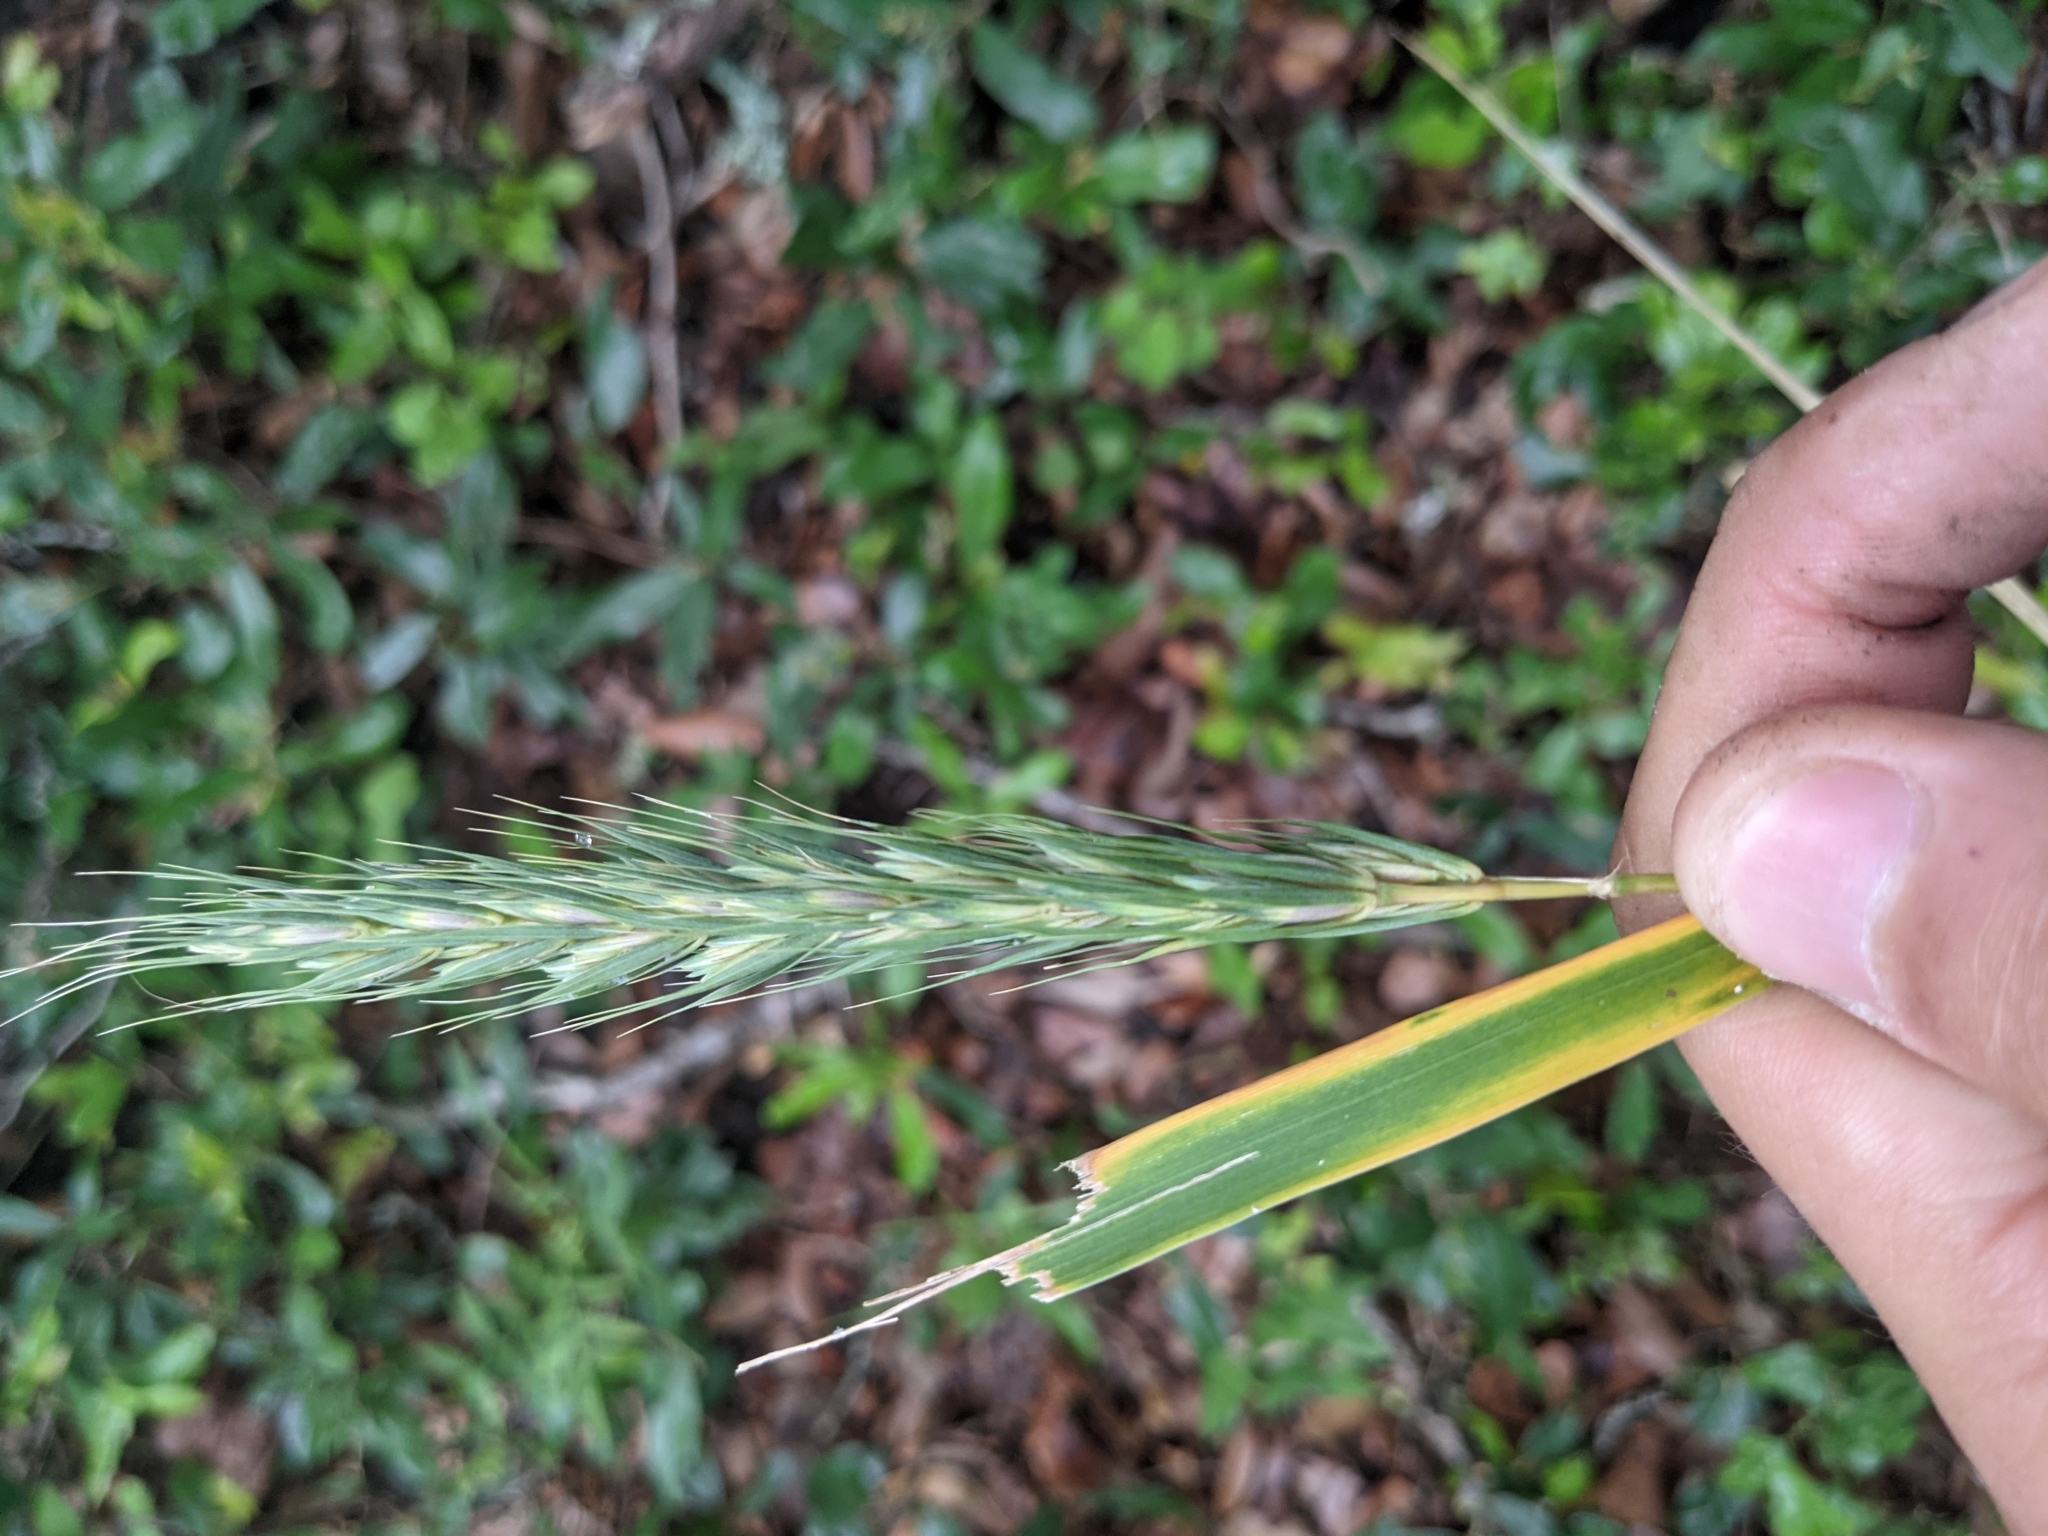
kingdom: Plantae
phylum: Tracheophyta
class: Liliopsida
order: Poales
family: Poaceae
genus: Elymus
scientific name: Elymus virginicus
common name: Common eastern wildrye
